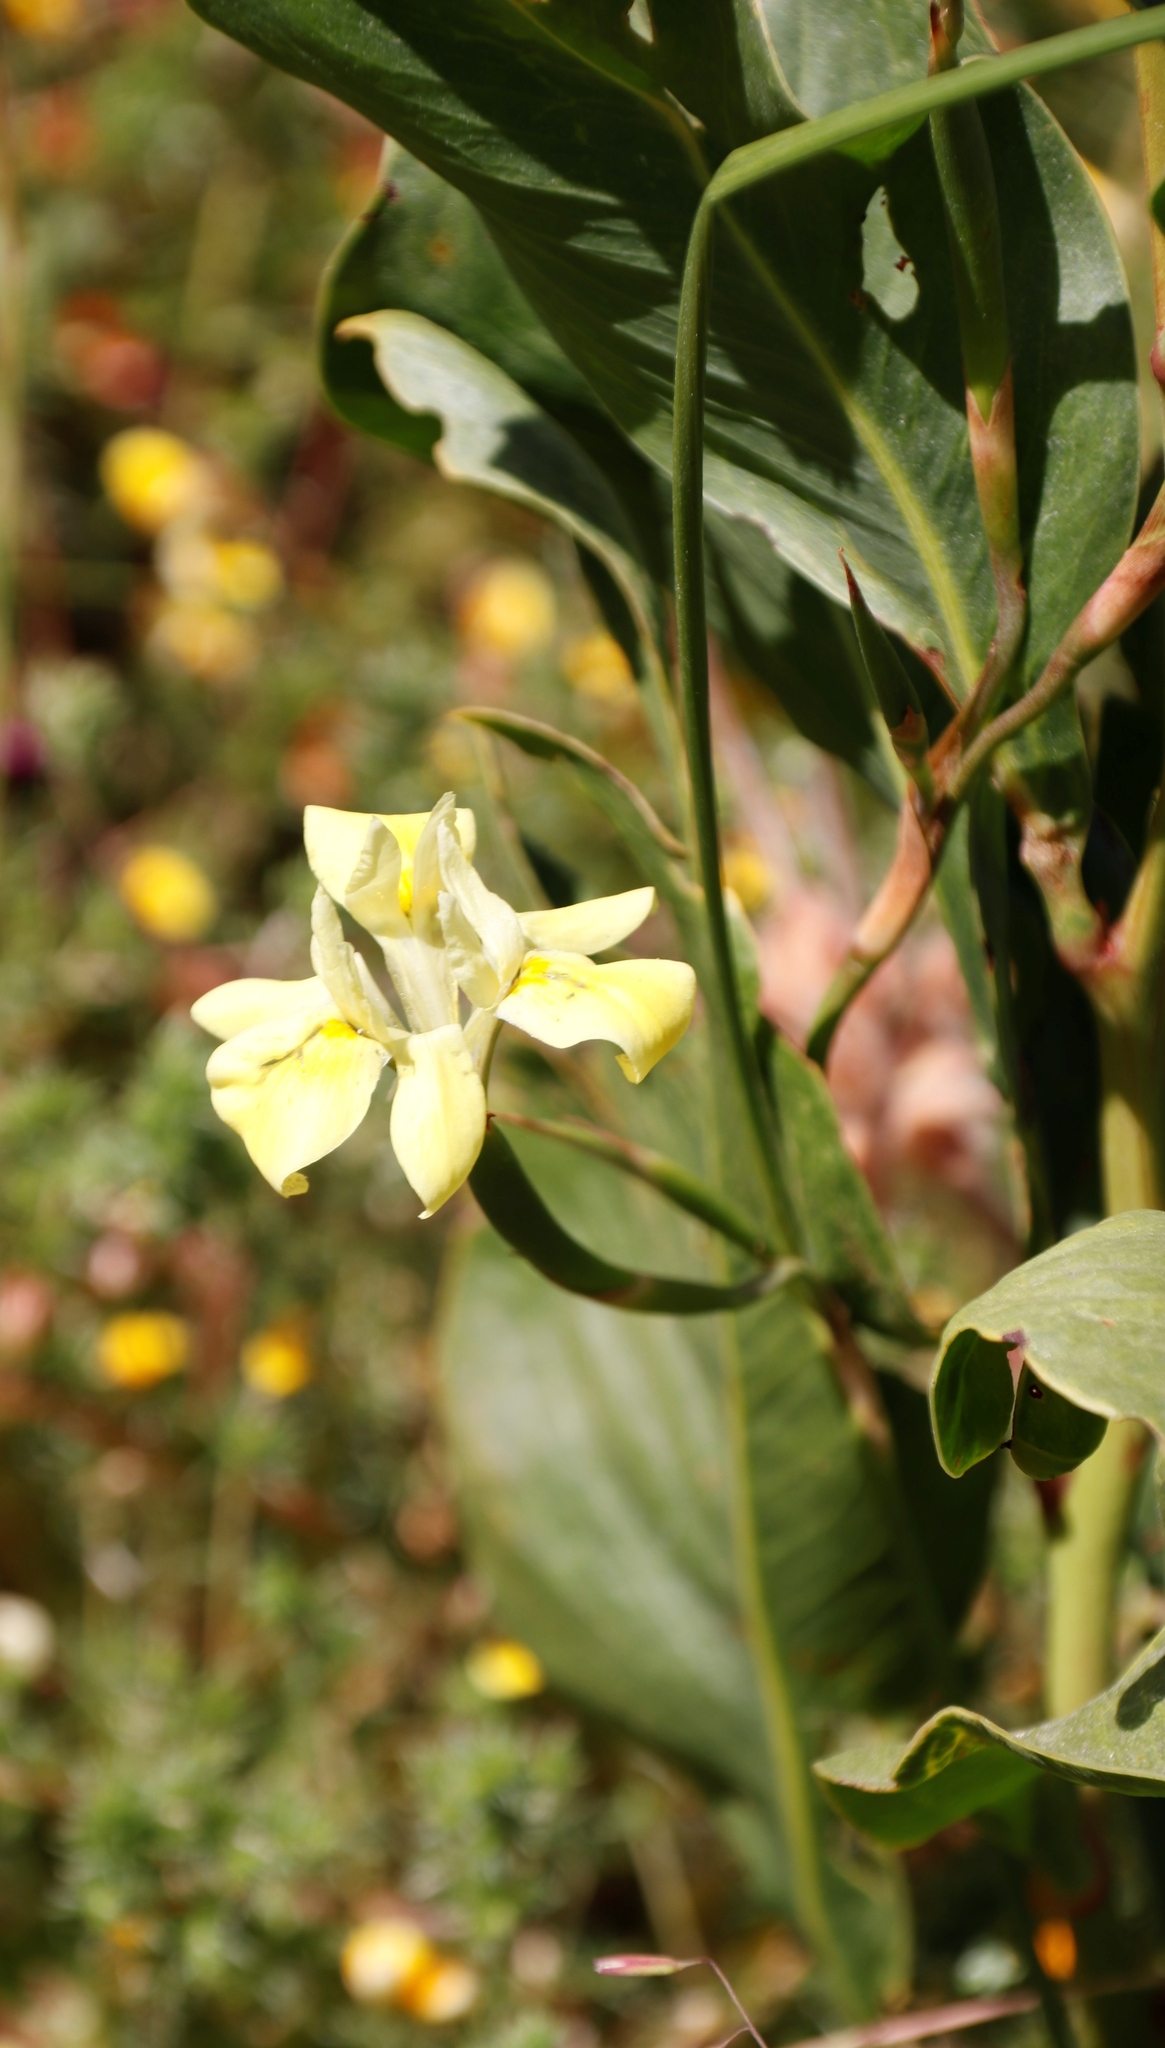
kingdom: Plantae
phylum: Tracheophyta
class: Liliopsida
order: Asparagales
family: Iridaceae
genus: Moraea
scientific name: Moraea fugax
